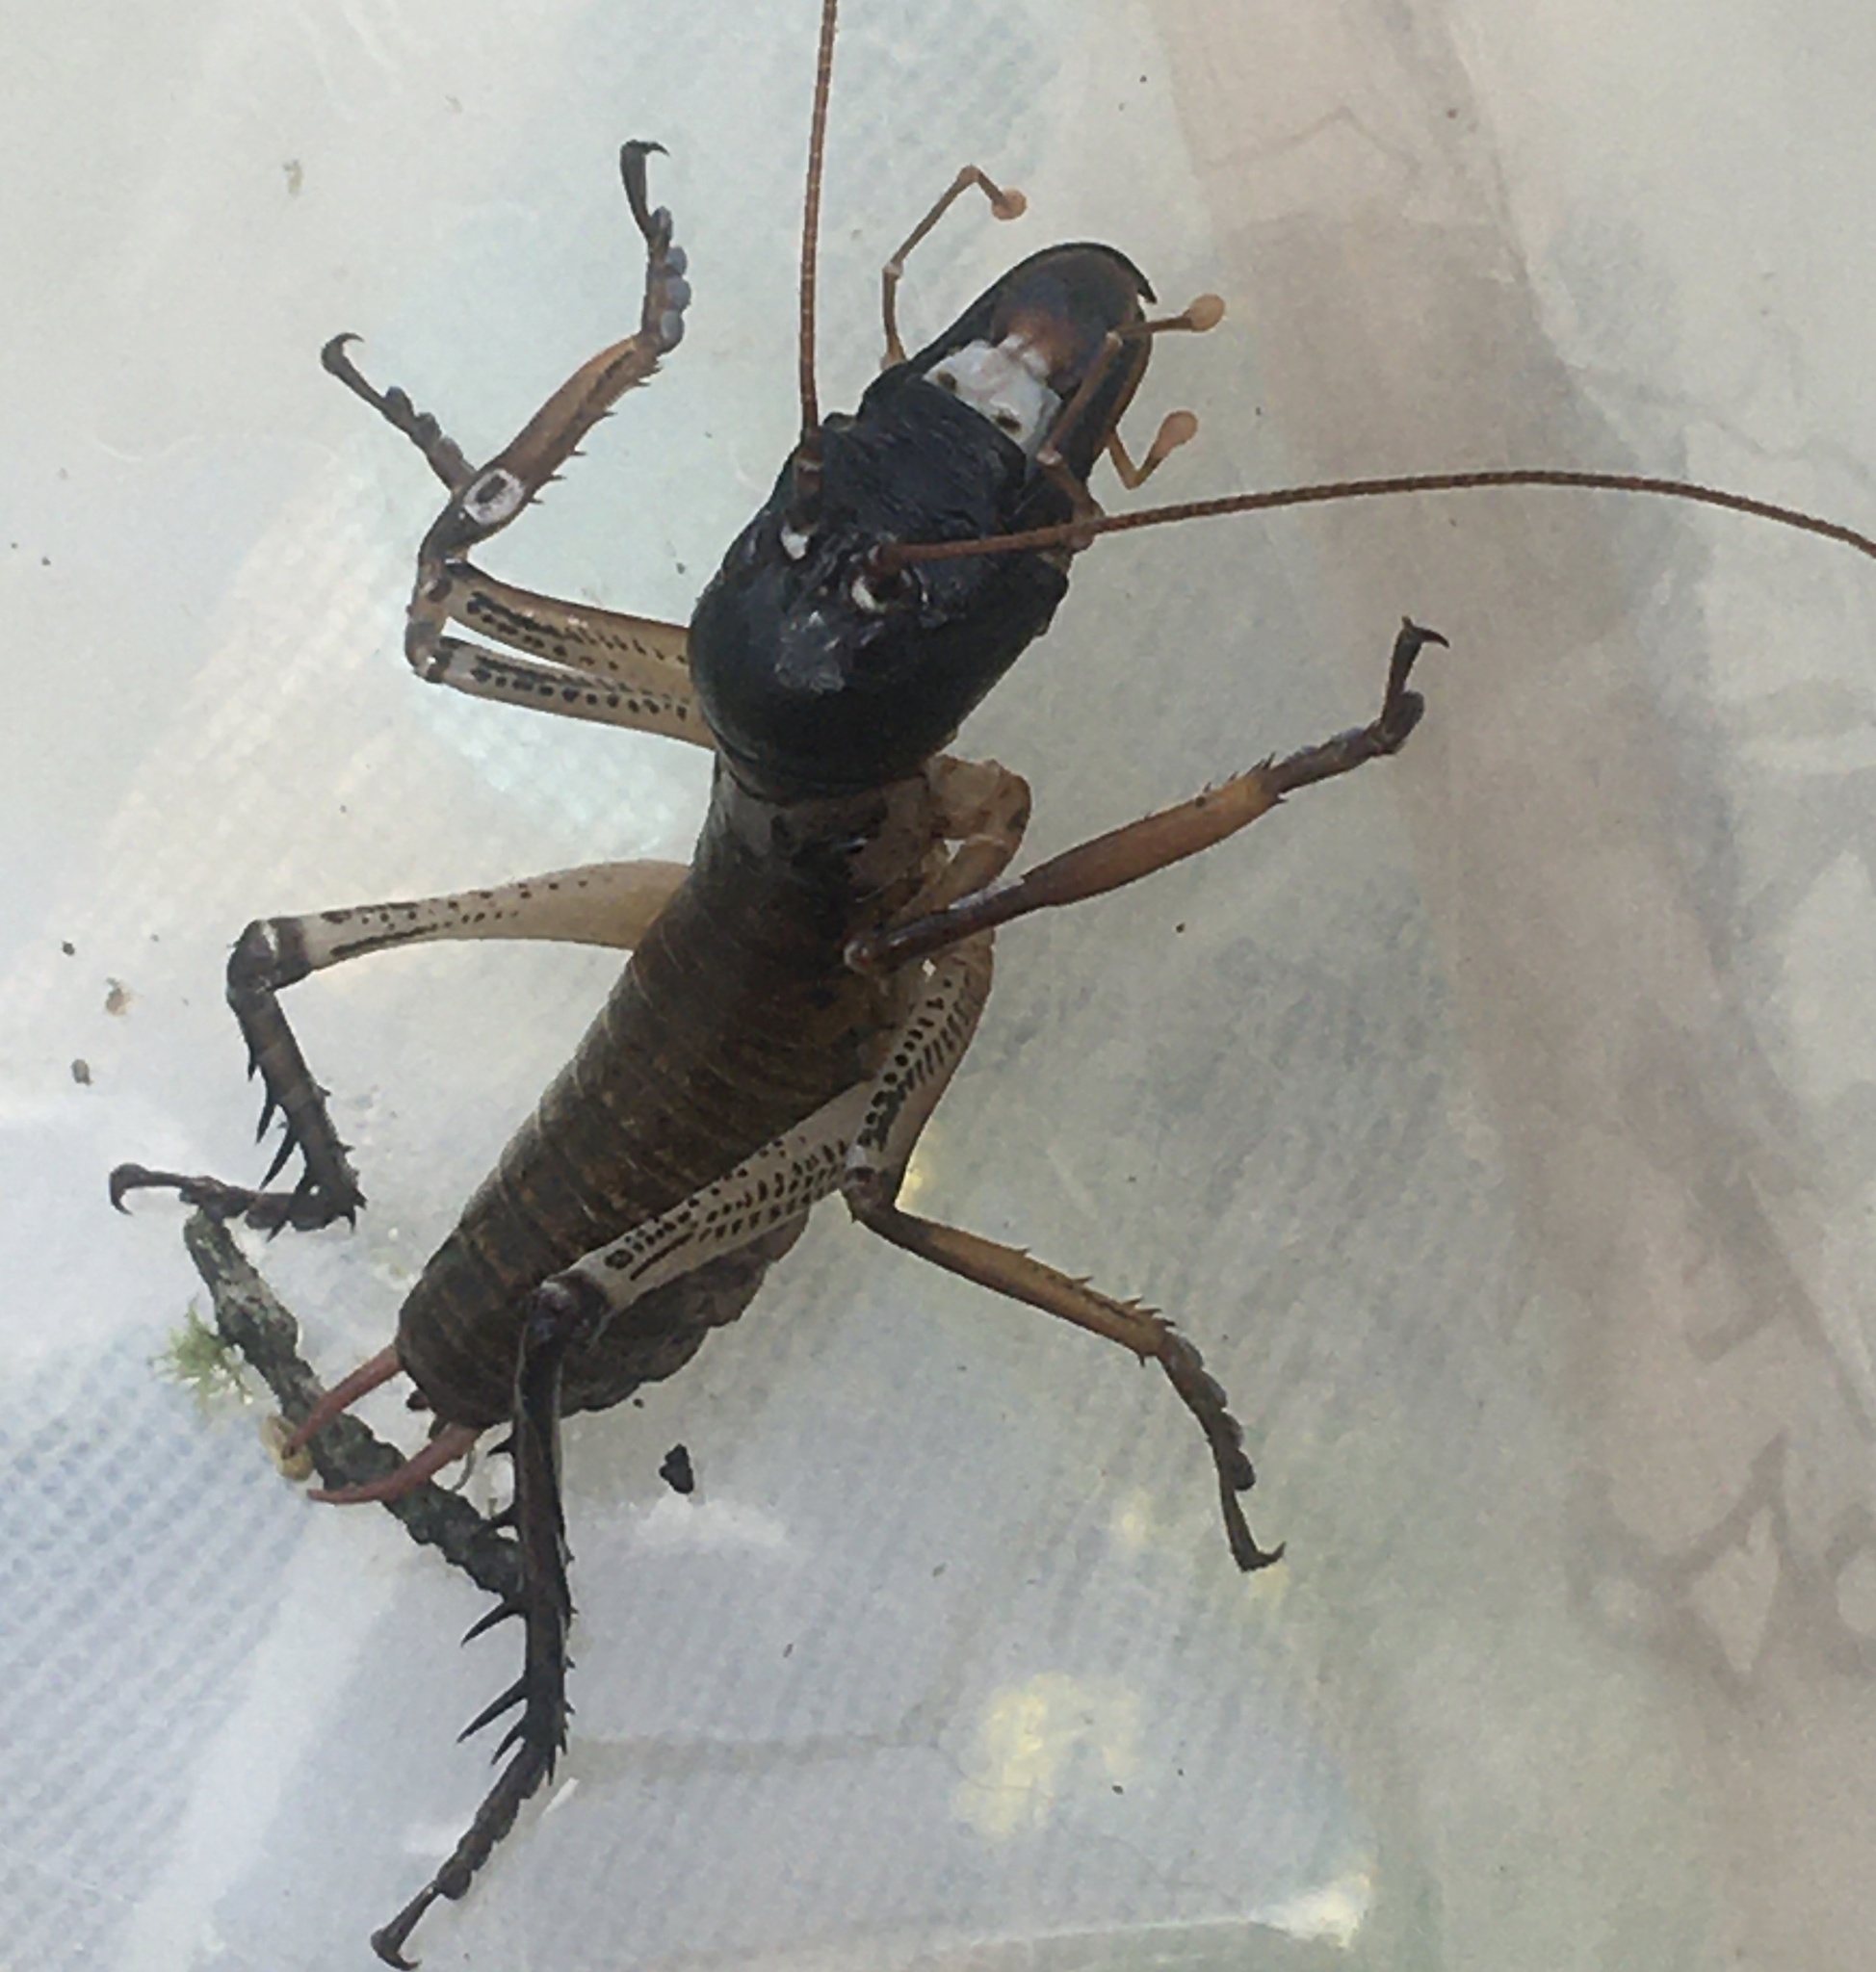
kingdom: Animalia
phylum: Arthropoda
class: Insecta
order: Orthoptera
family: Anostostomatidae
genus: Hemideina
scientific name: Hemideina thoracica
